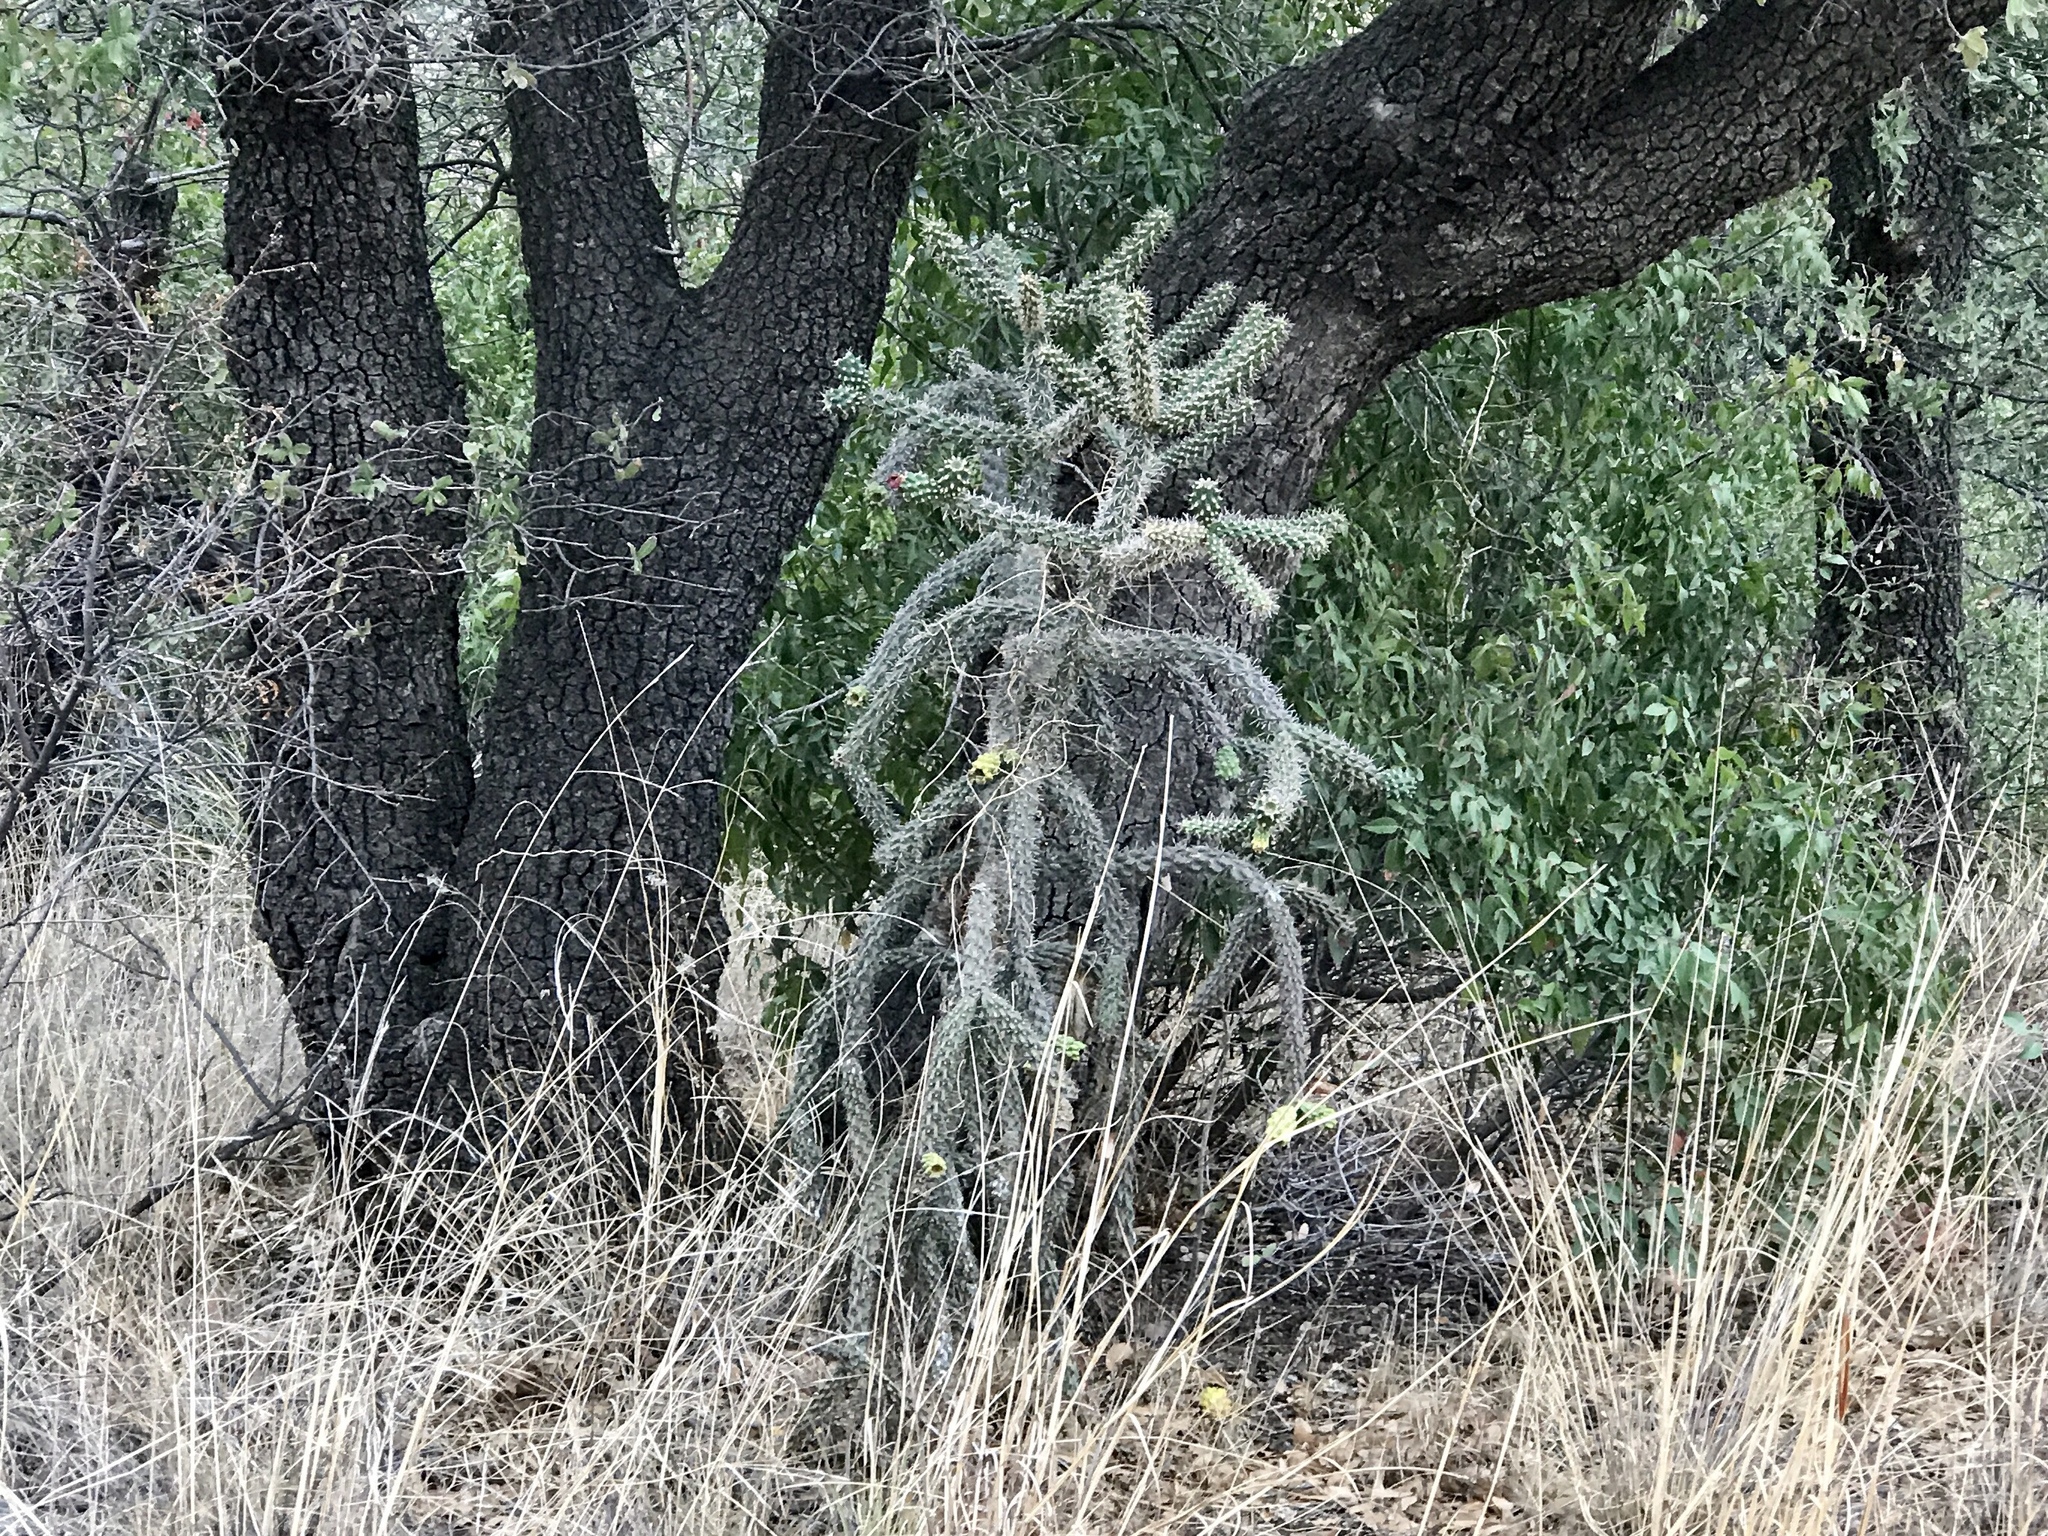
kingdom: Plantae
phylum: Tracheophyta
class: Magnoliopsida
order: Caryophyllales
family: Cactaceae
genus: Cylindropuntia
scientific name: Cylindropuntia imbricata
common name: Candelabrum cactus
